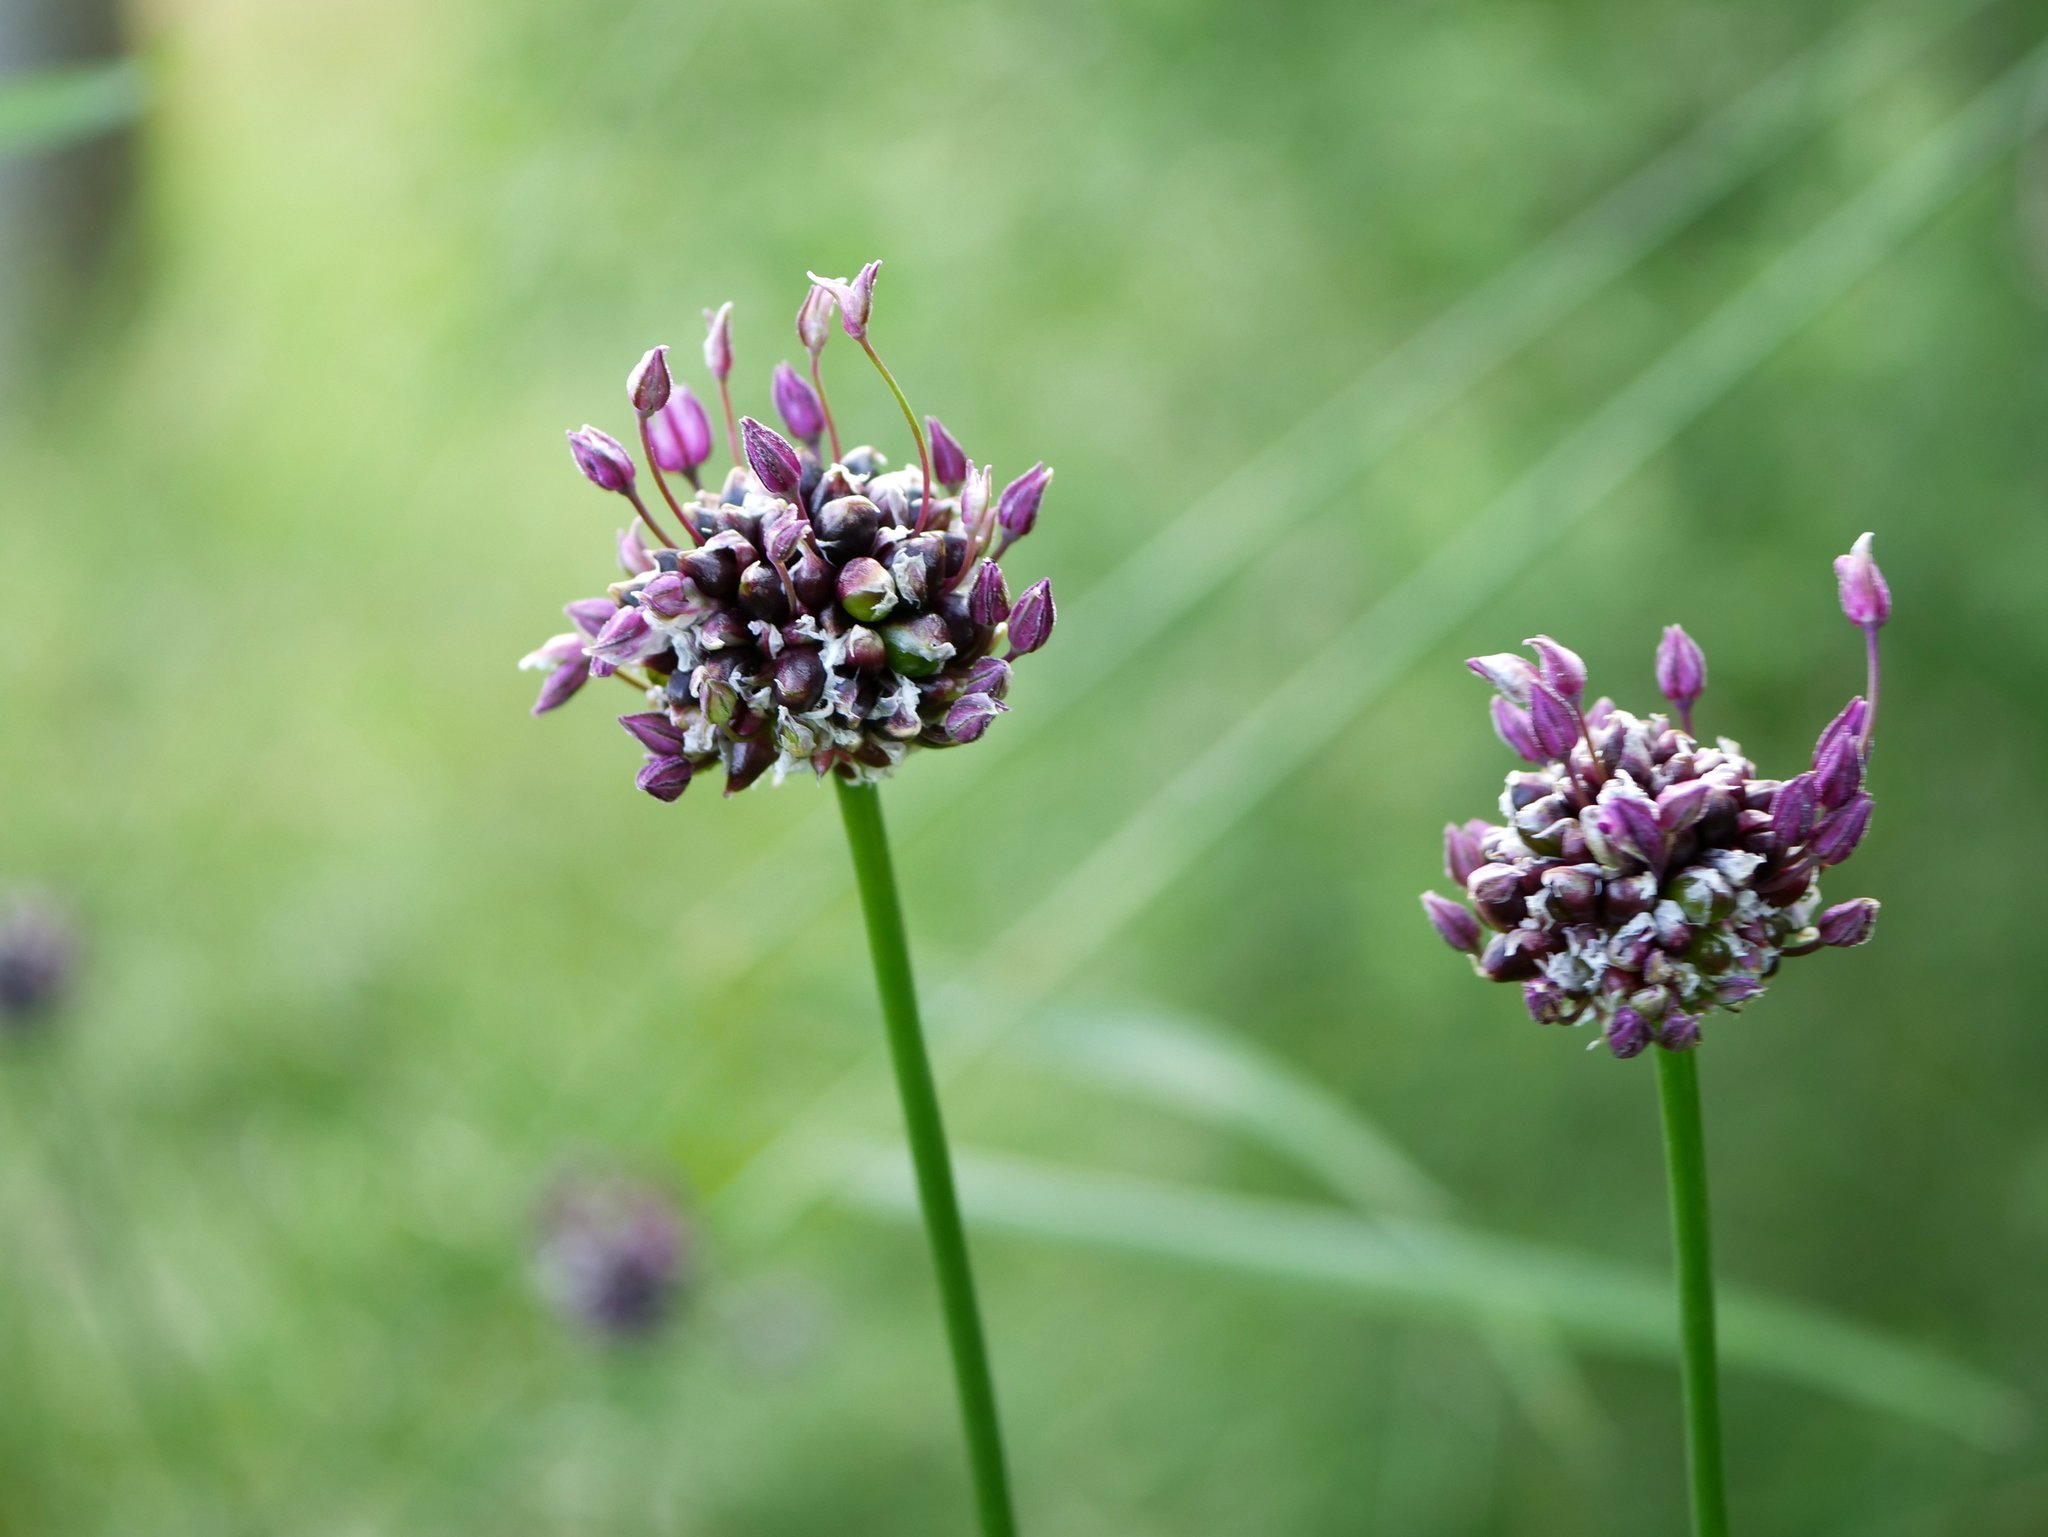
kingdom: Plantae
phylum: Tracheophyta
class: Liliopsida
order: Asparagales
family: Amaryllidaceae
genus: Allium
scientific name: Allium scorodoprasum
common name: Sand leek
